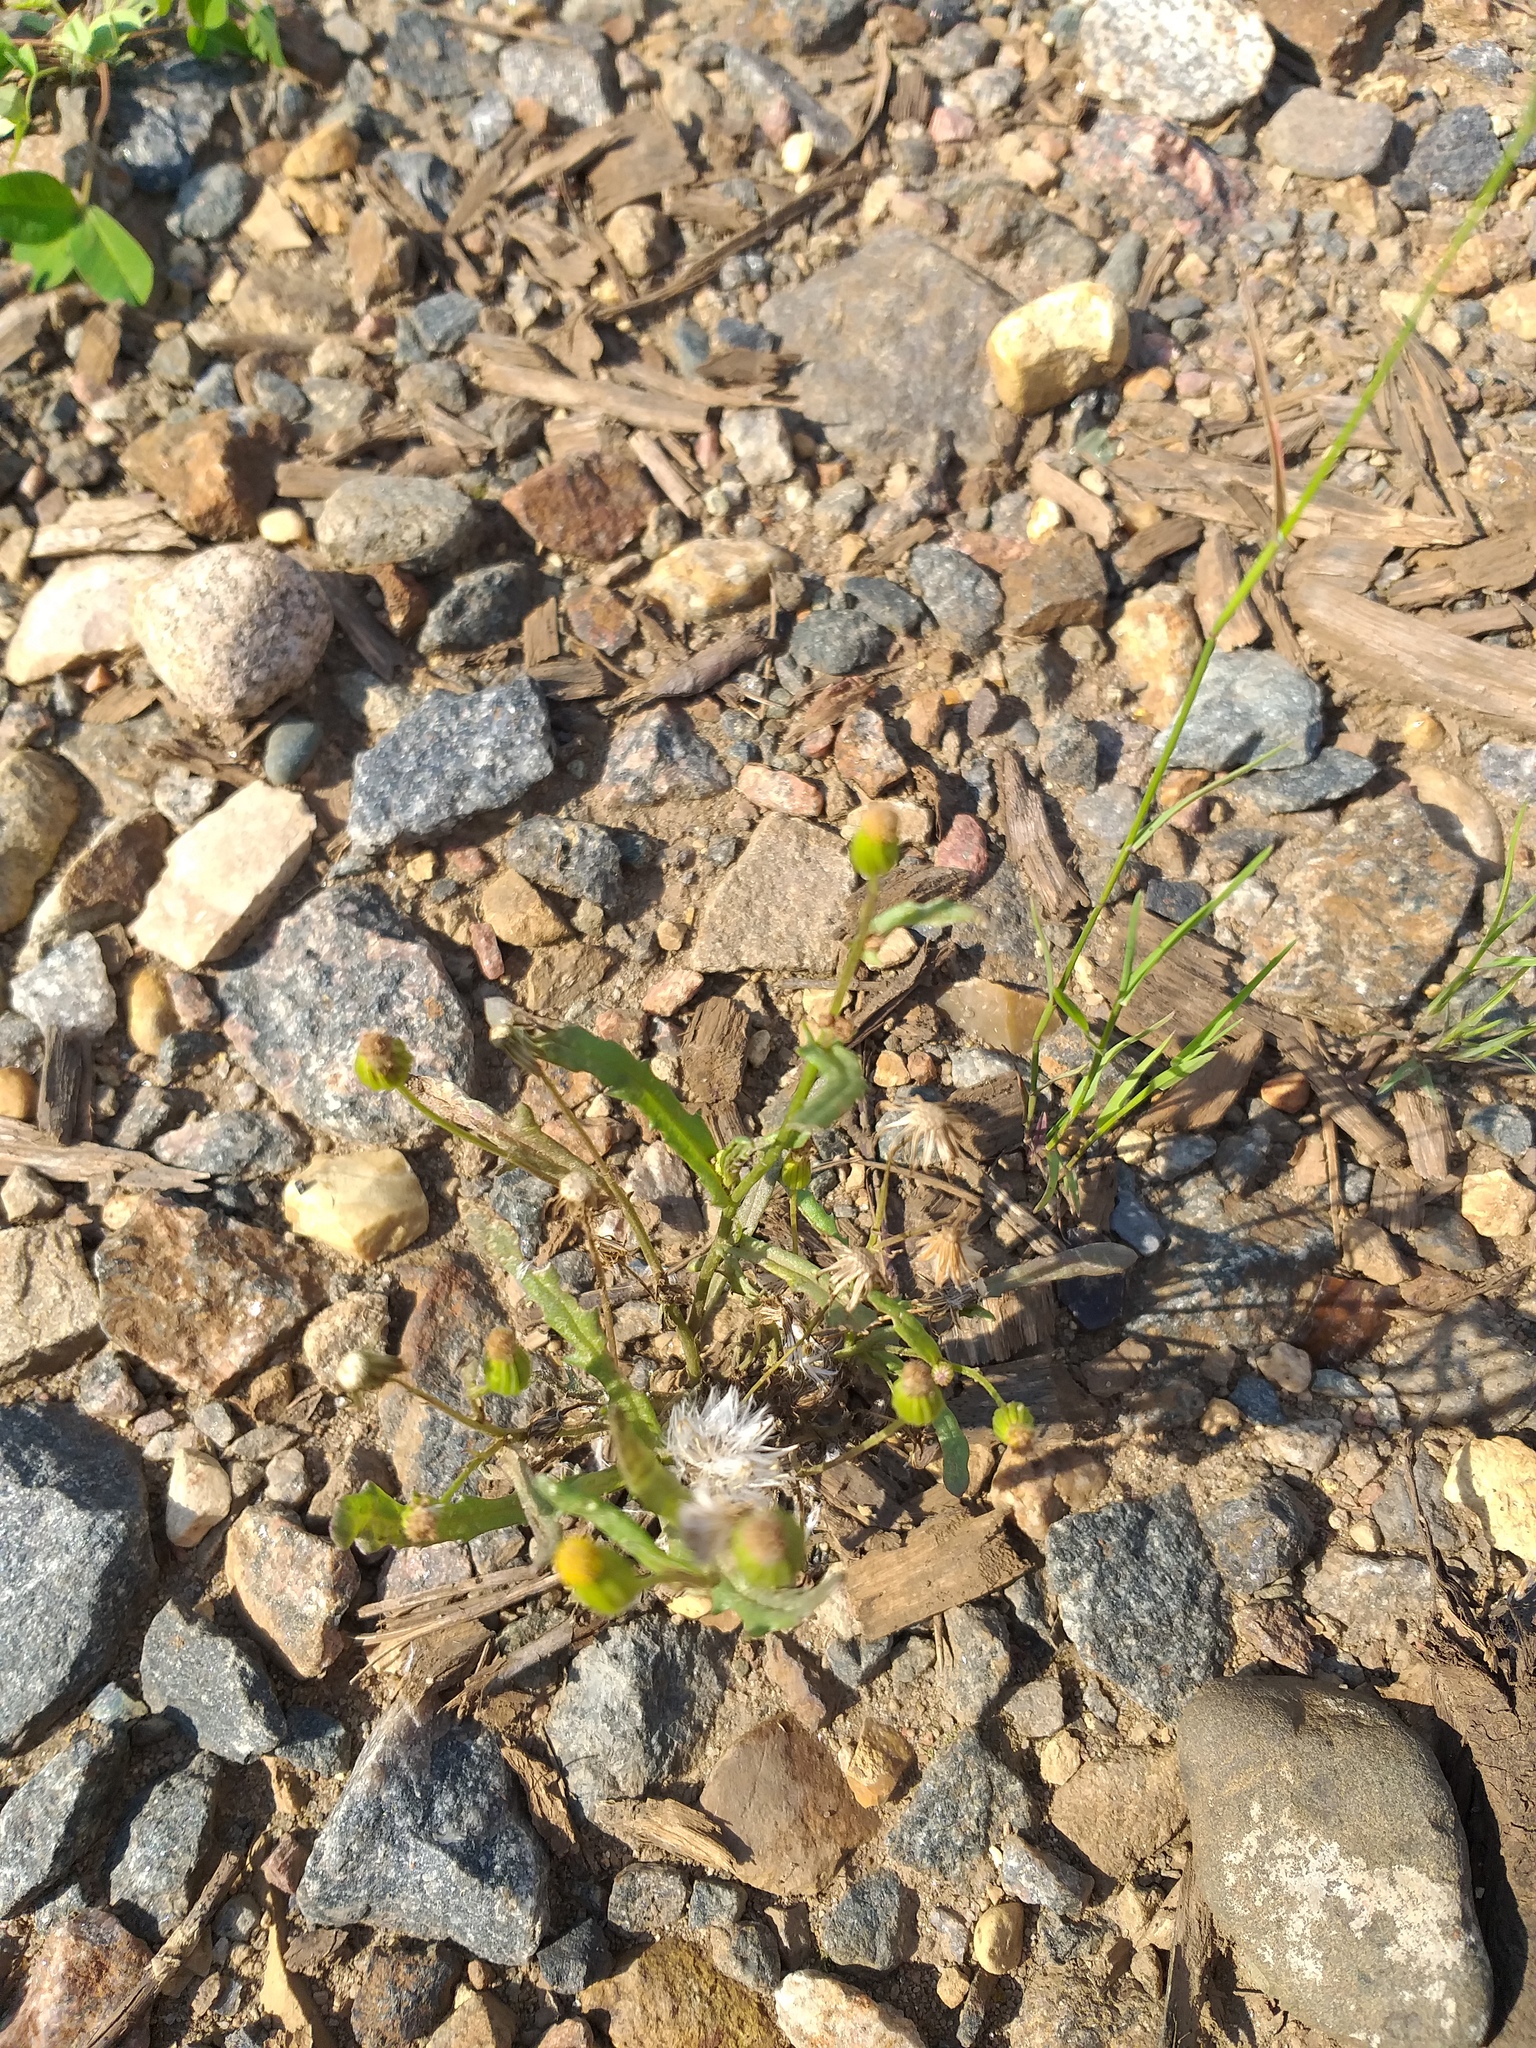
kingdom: Plantae
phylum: Tracheophyta
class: Magnoliopsida
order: Asterales
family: Asteraceae
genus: Senecio
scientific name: Senecio dubitabilis
